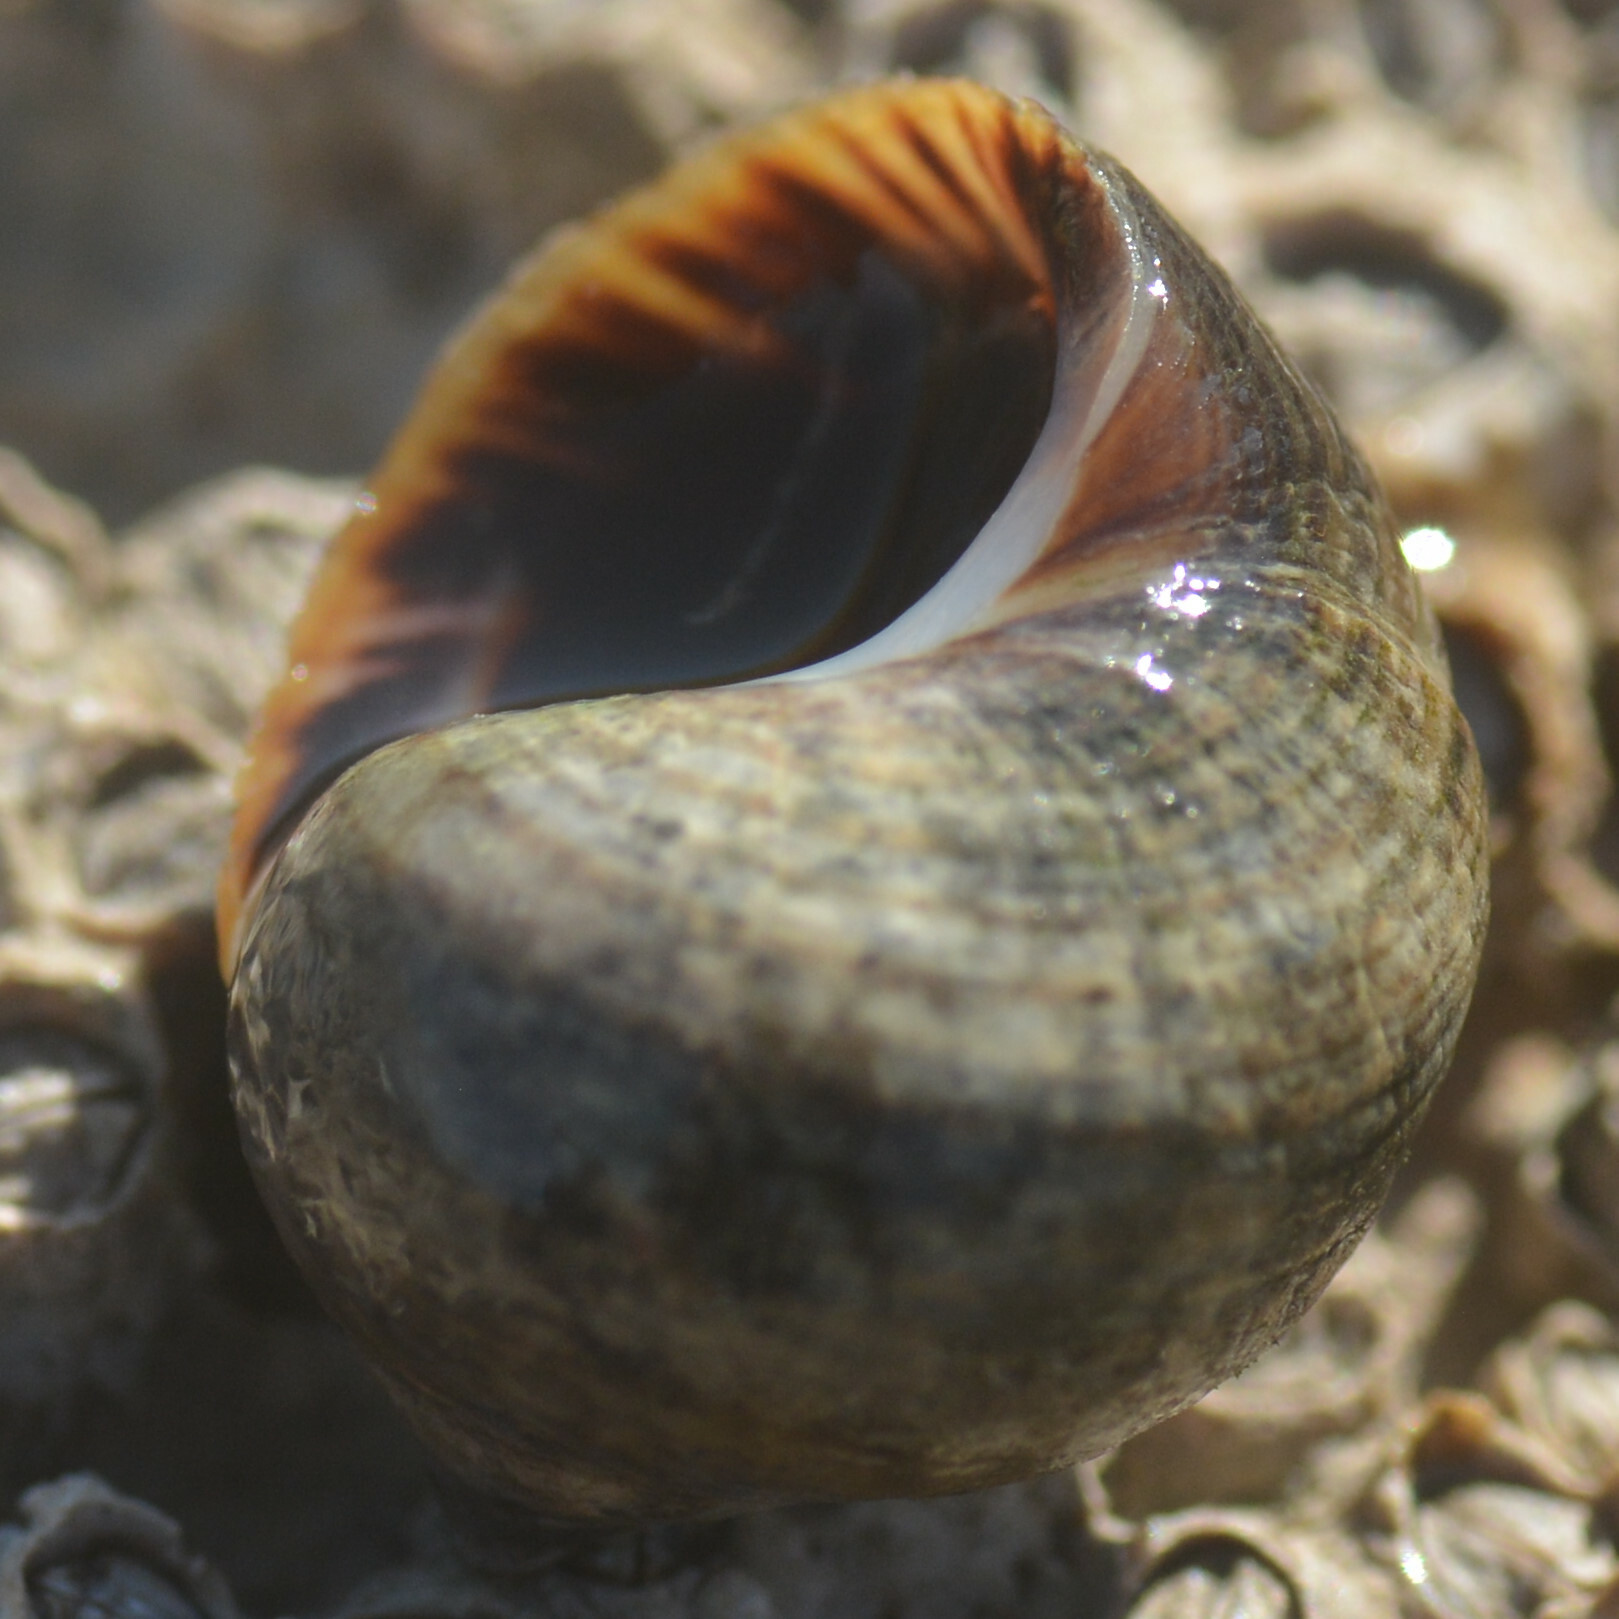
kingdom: Animalia
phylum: Mollusca
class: Gastropoda
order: Littorinimorpha
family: Littorinidae
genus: Littorina
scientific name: Littorina littorea
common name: Common periwinkle
